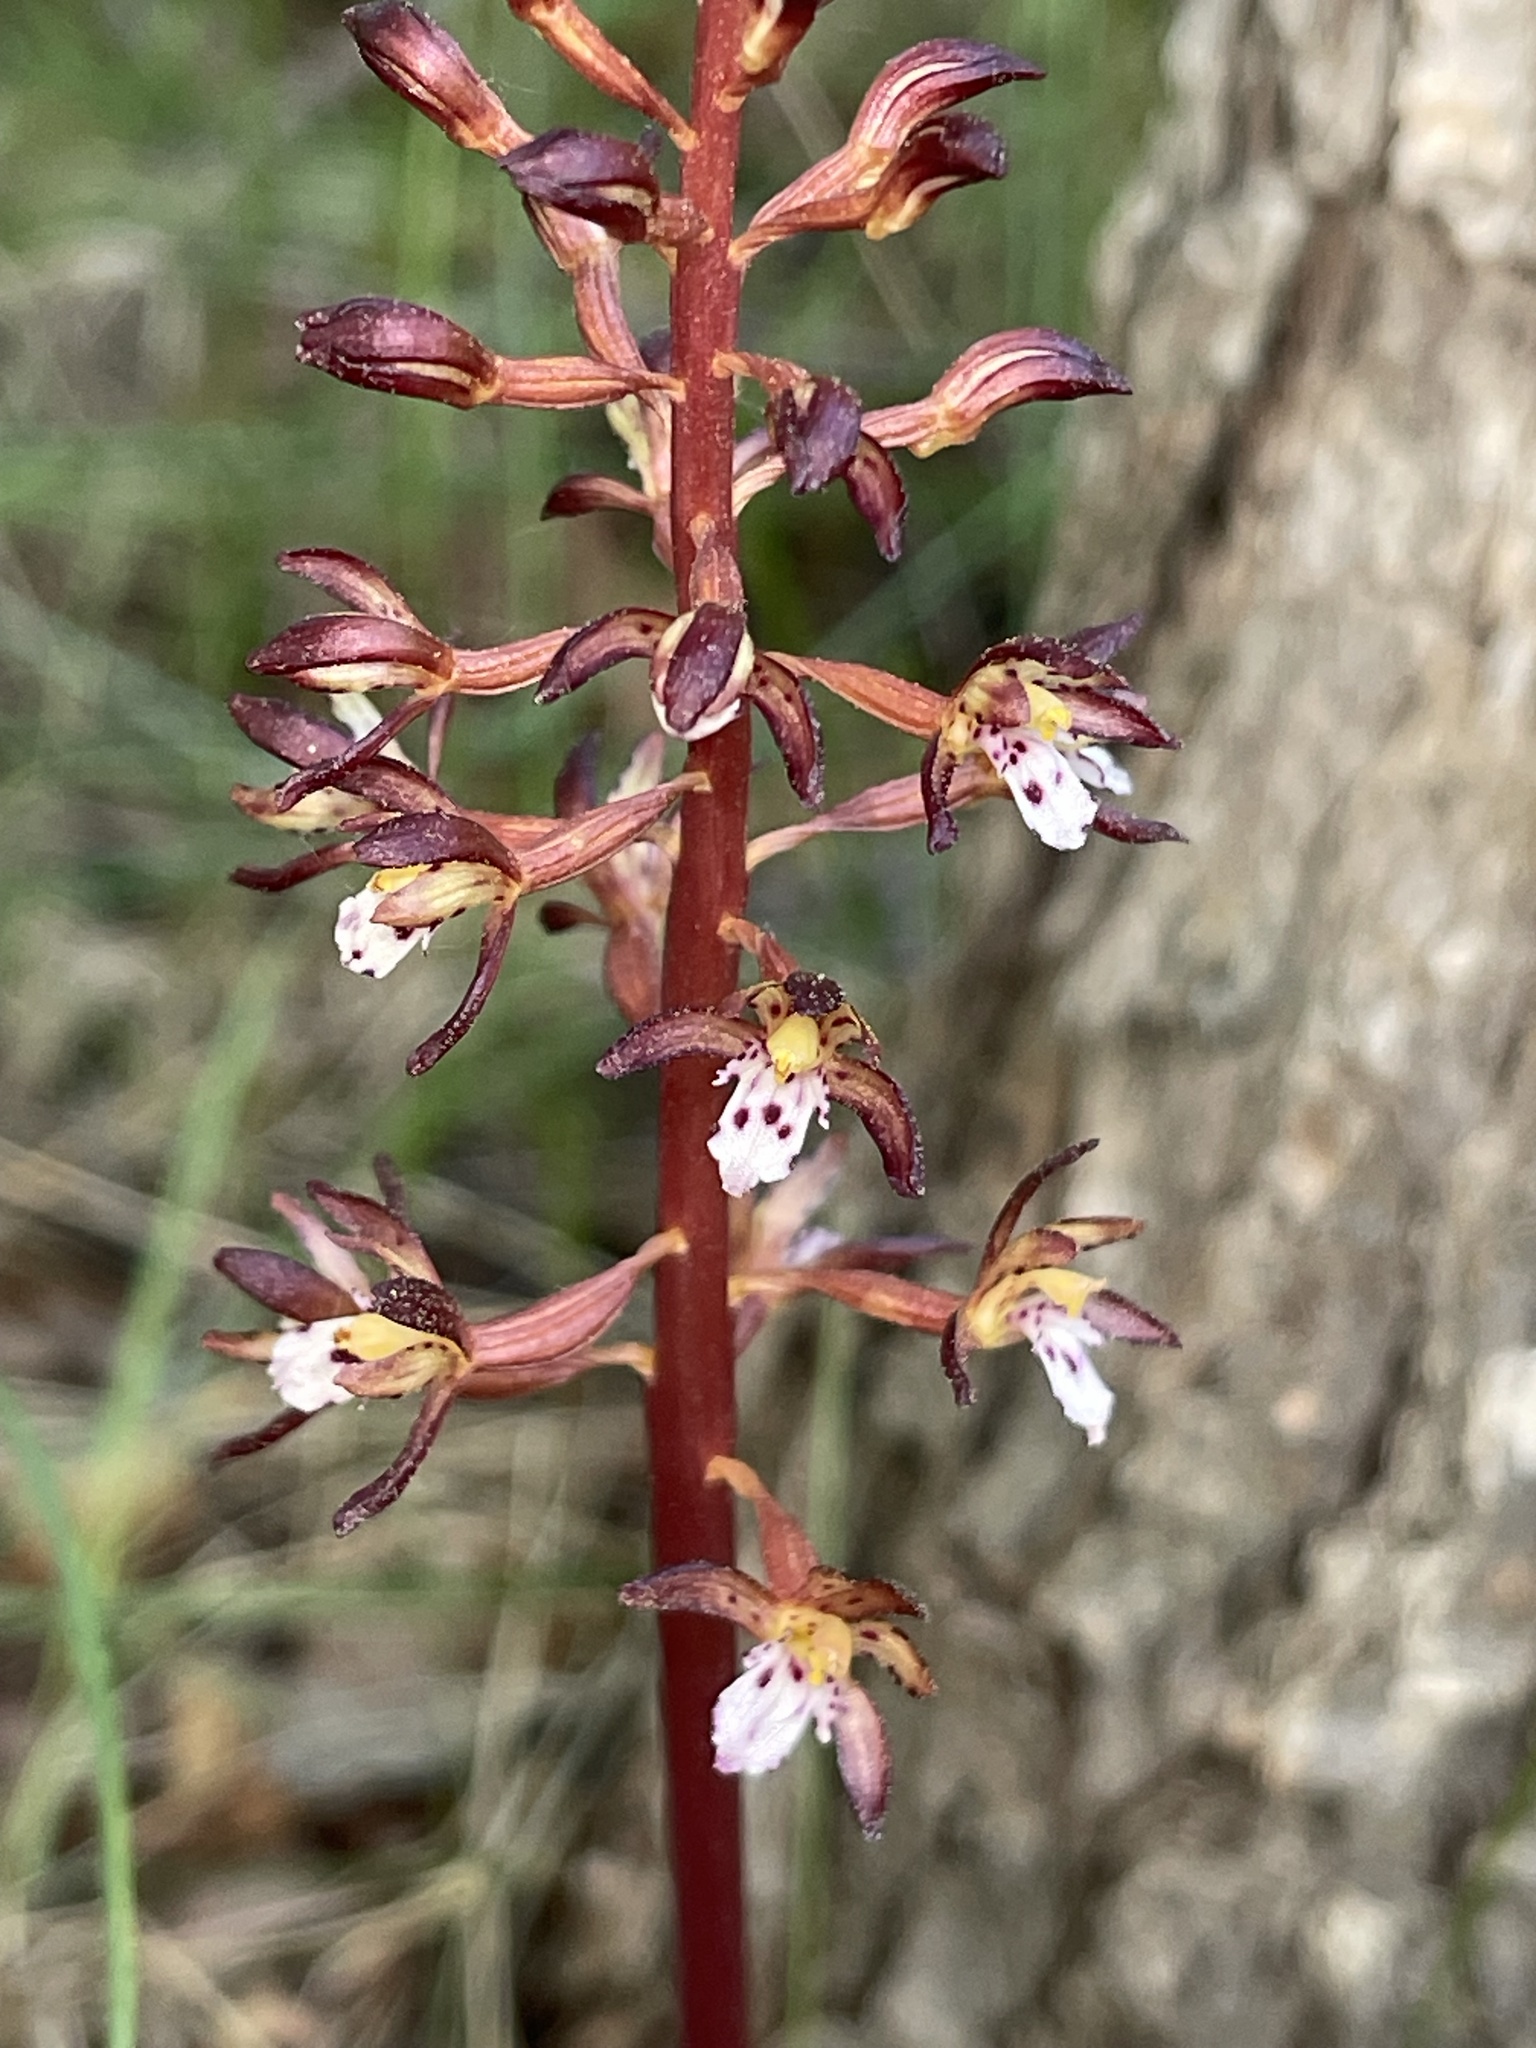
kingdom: Plantae
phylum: Tracheophyta
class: Liliopsida
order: Asparagales
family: Orchidaceae
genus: Corallorhiza
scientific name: Corallorhiza maculata
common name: Spotted coralroot
